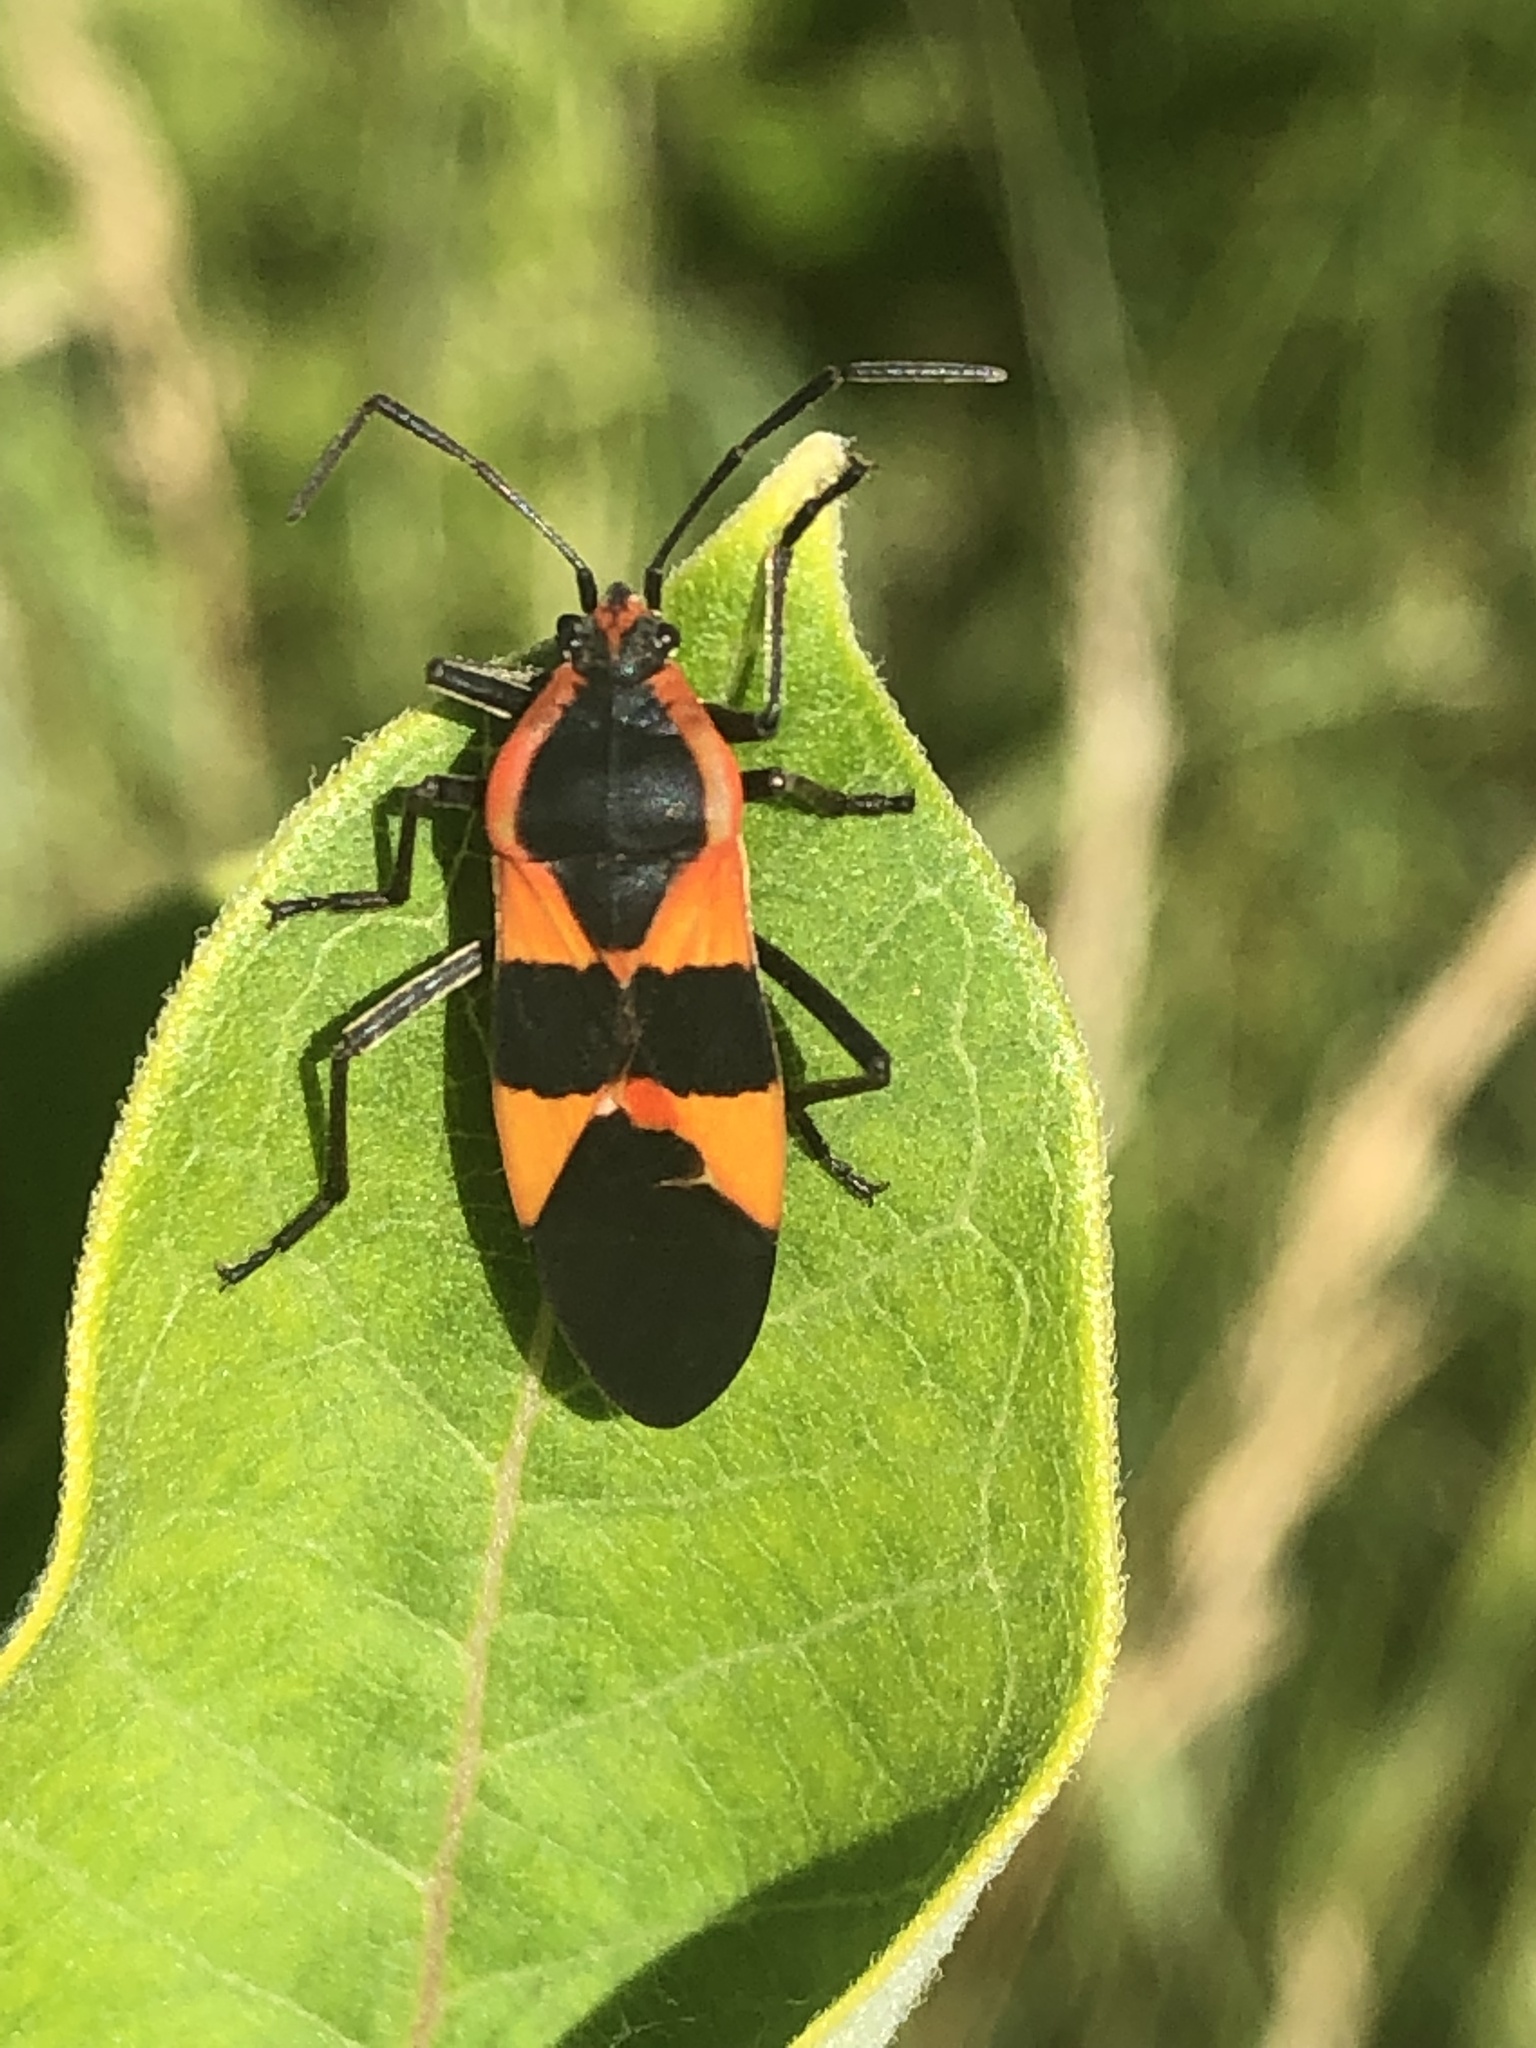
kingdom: Animalia
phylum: Arthropoda
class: Insecta
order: Hemiptera
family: Lygaeidae
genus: Oncopeltus
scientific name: Oncopeltus fasciatus
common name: Large milkweed bug
